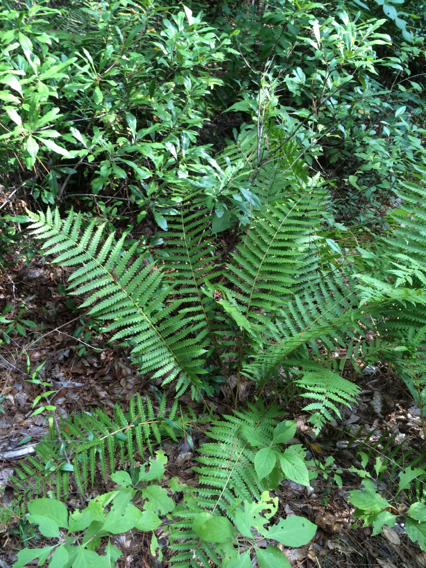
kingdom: Plantae
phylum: Tracheophyta
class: Polypodiopsida
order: Osmundales
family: Osmundaceae
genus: Osmundastrum
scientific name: Osmundastrum cinnamomeum
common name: Cinnamon fern
